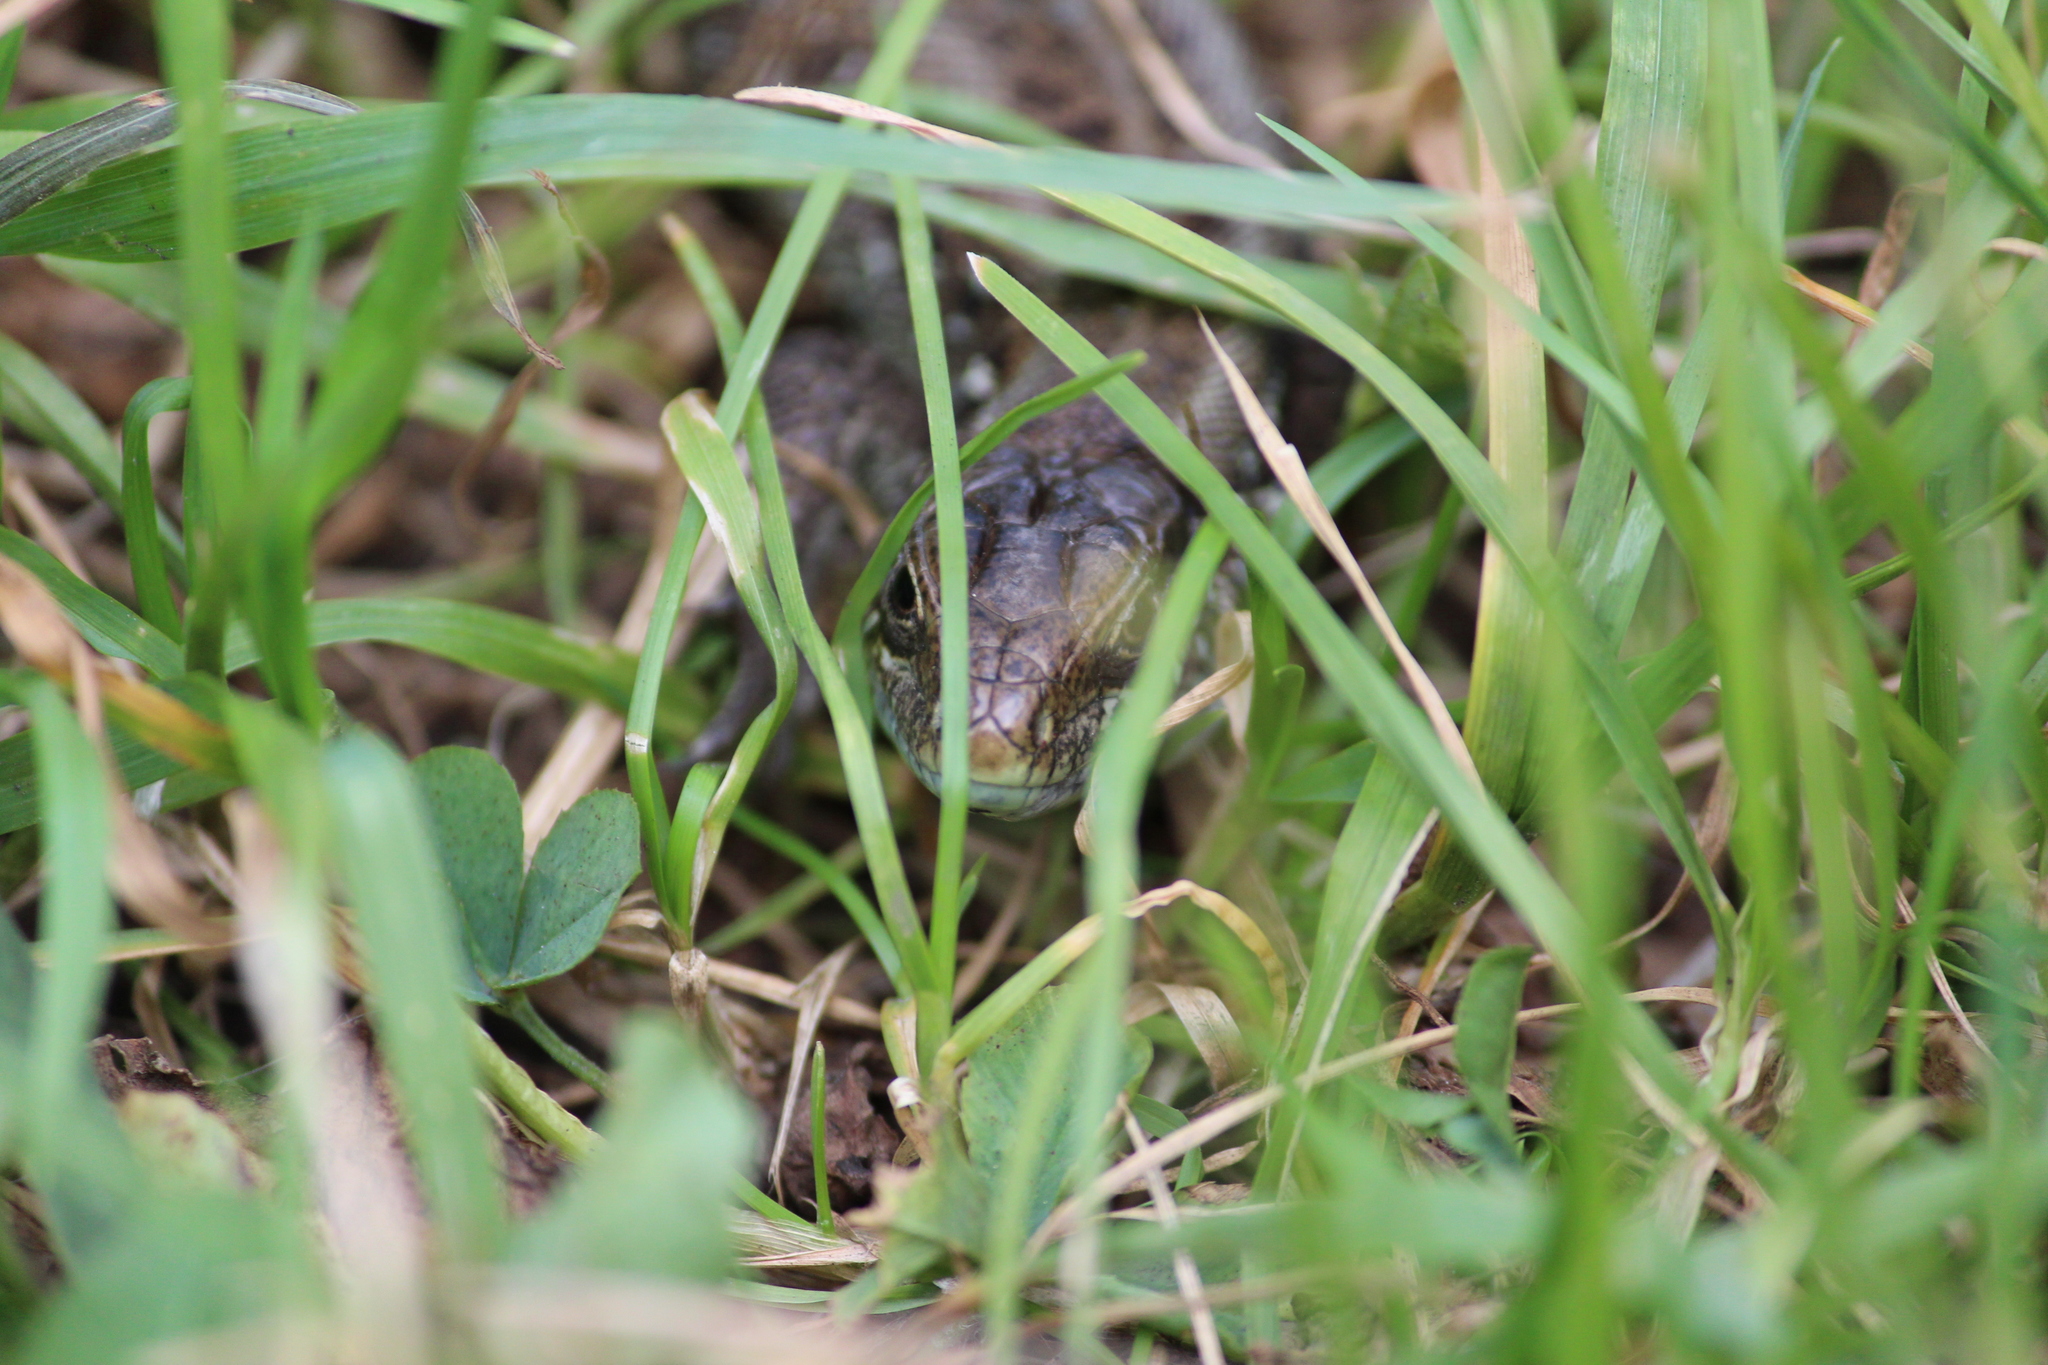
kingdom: Animalia
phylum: Chordata
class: Squamata
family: Lacertidae
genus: Lacerta
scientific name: Lacerta agilis
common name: Sand lizard
